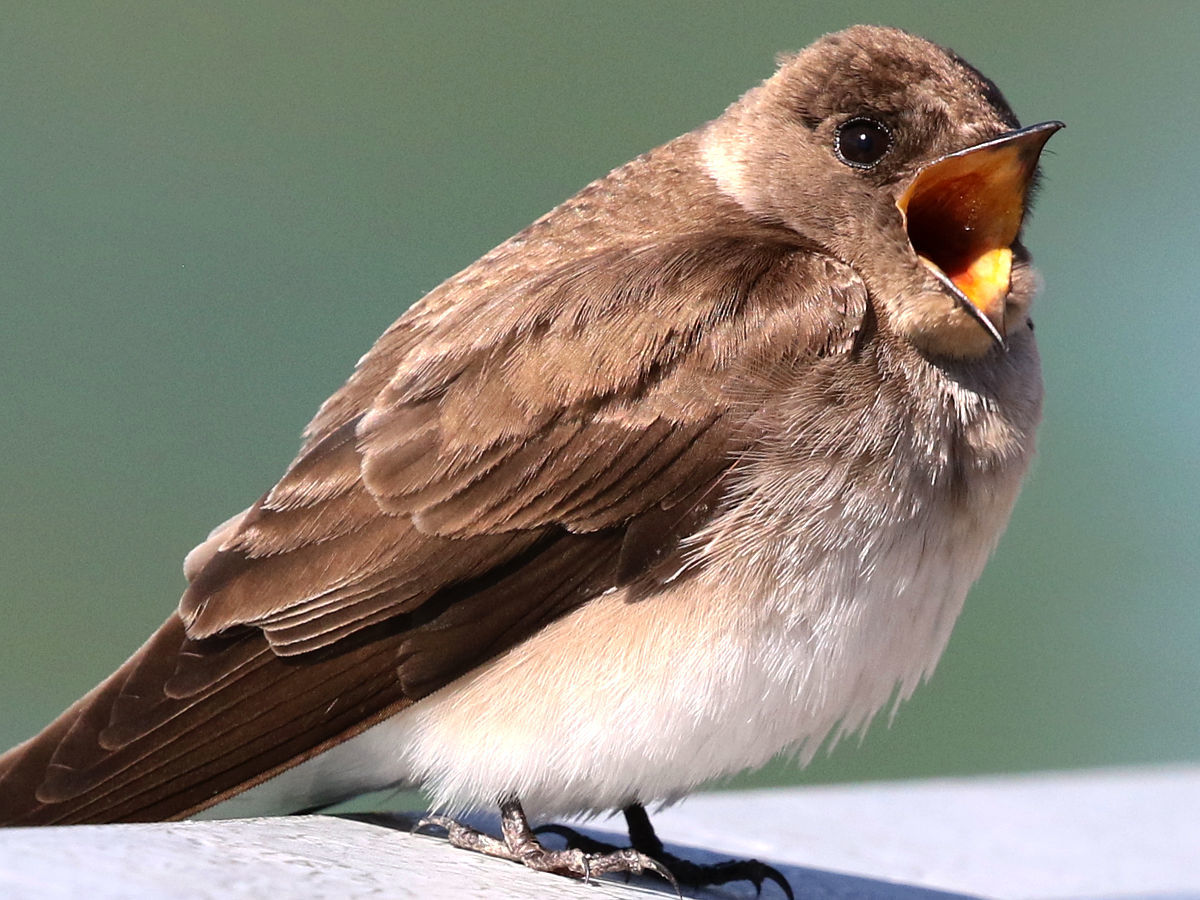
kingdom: Animalia
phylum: Chordata
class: Aves
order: Passeriformes
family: Hirundinidae
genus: Stelgidopteryx
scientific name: Stelgidopteryx serripennis
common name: Northern rough-winged swallow
